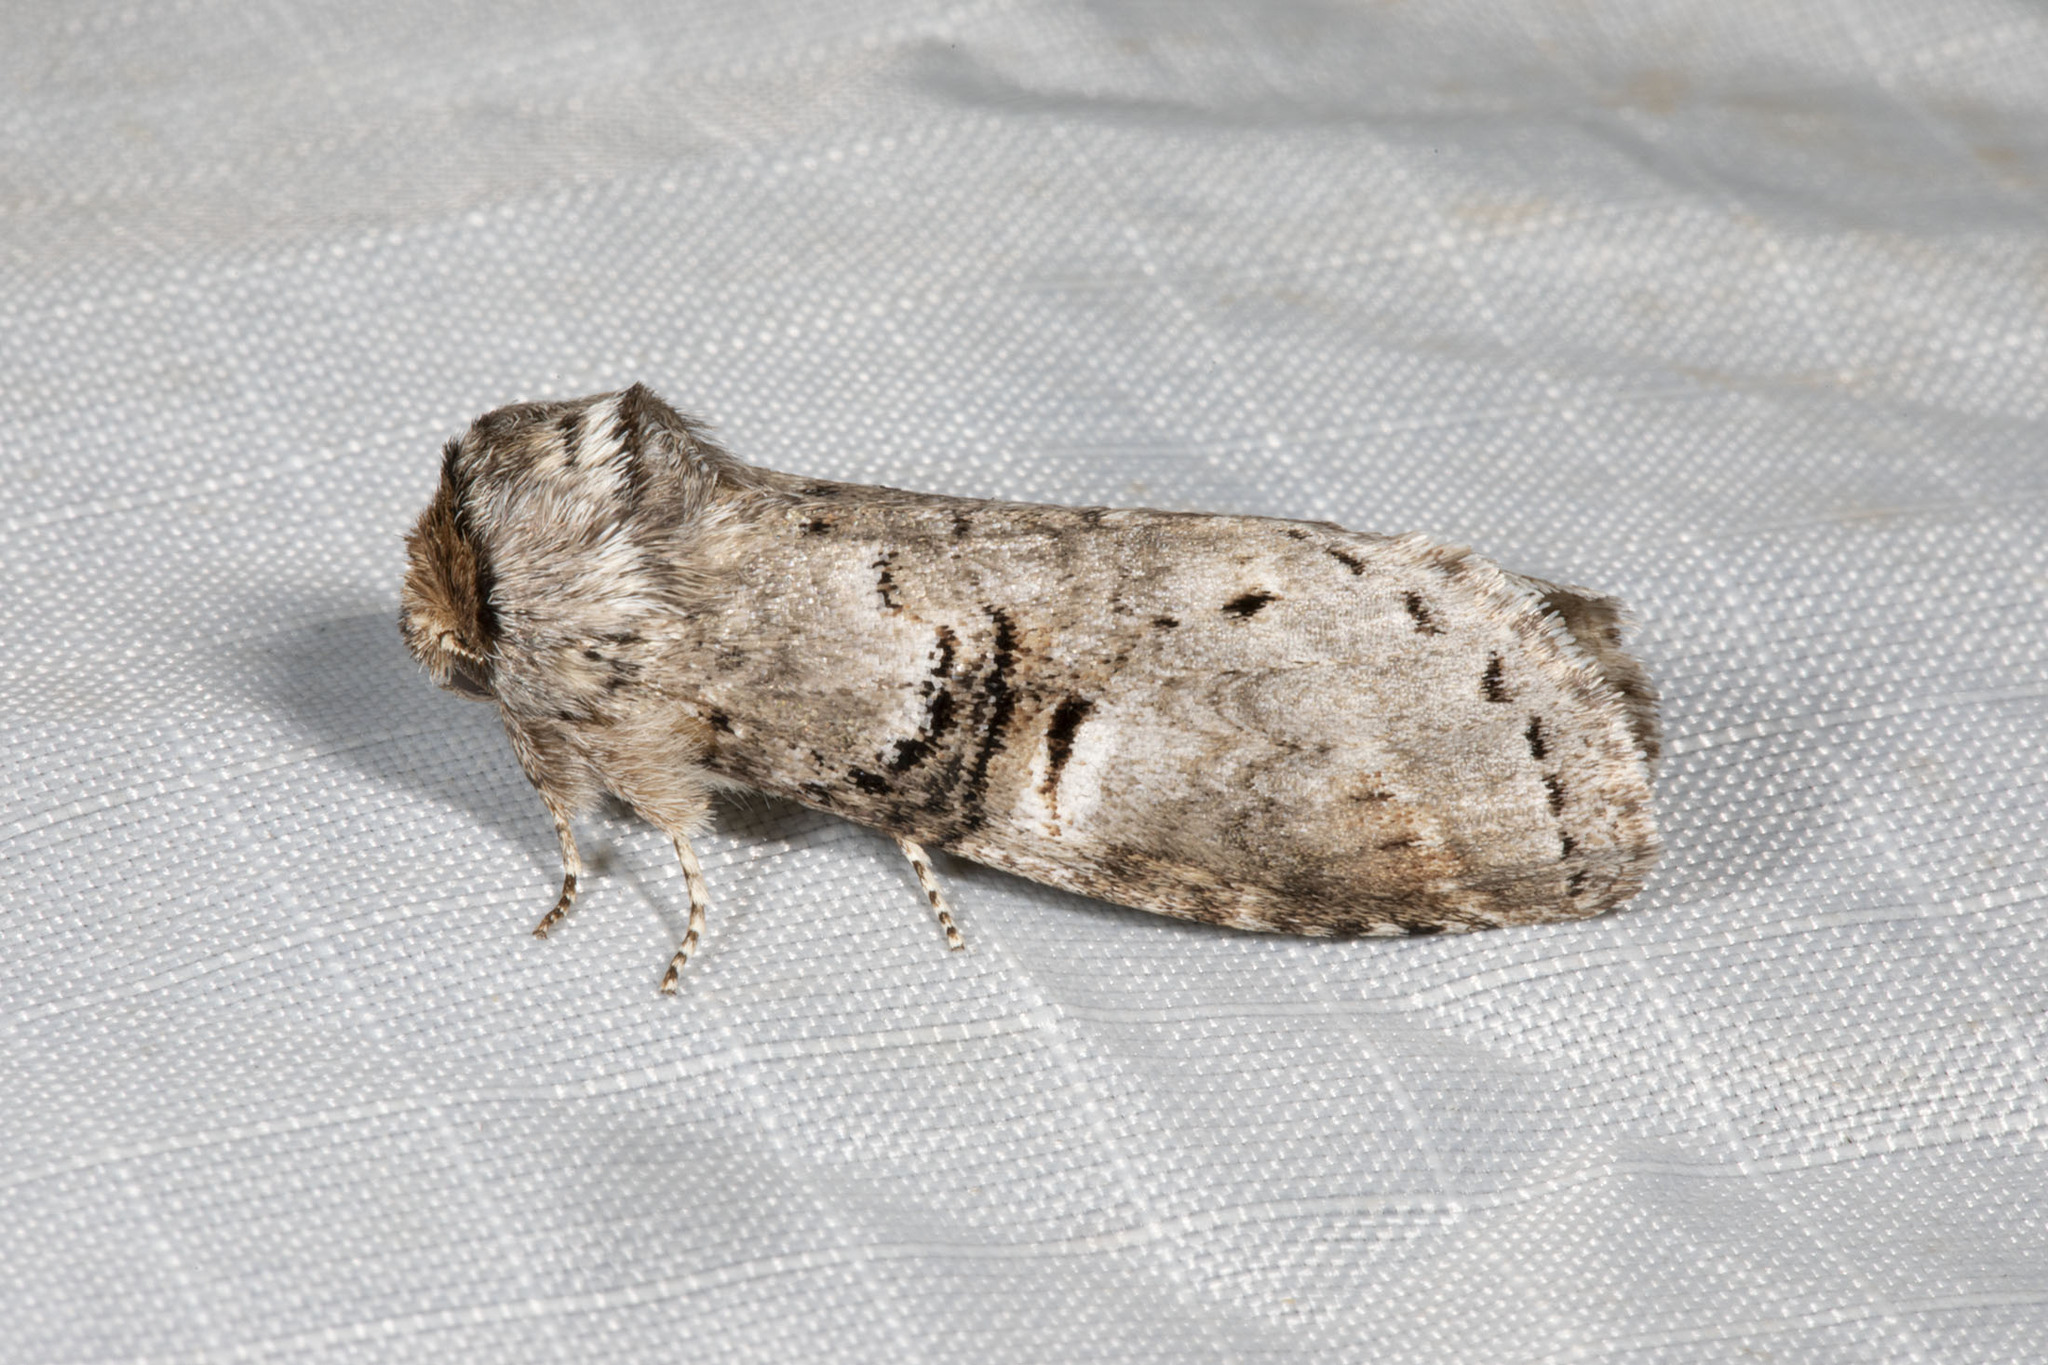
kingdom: Animalia
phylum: Arthropoda
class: Insecta
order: Lepidoptera
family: Notodontidae
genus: Ellida
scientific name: Ellida caniplaga
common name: Linden prominent
